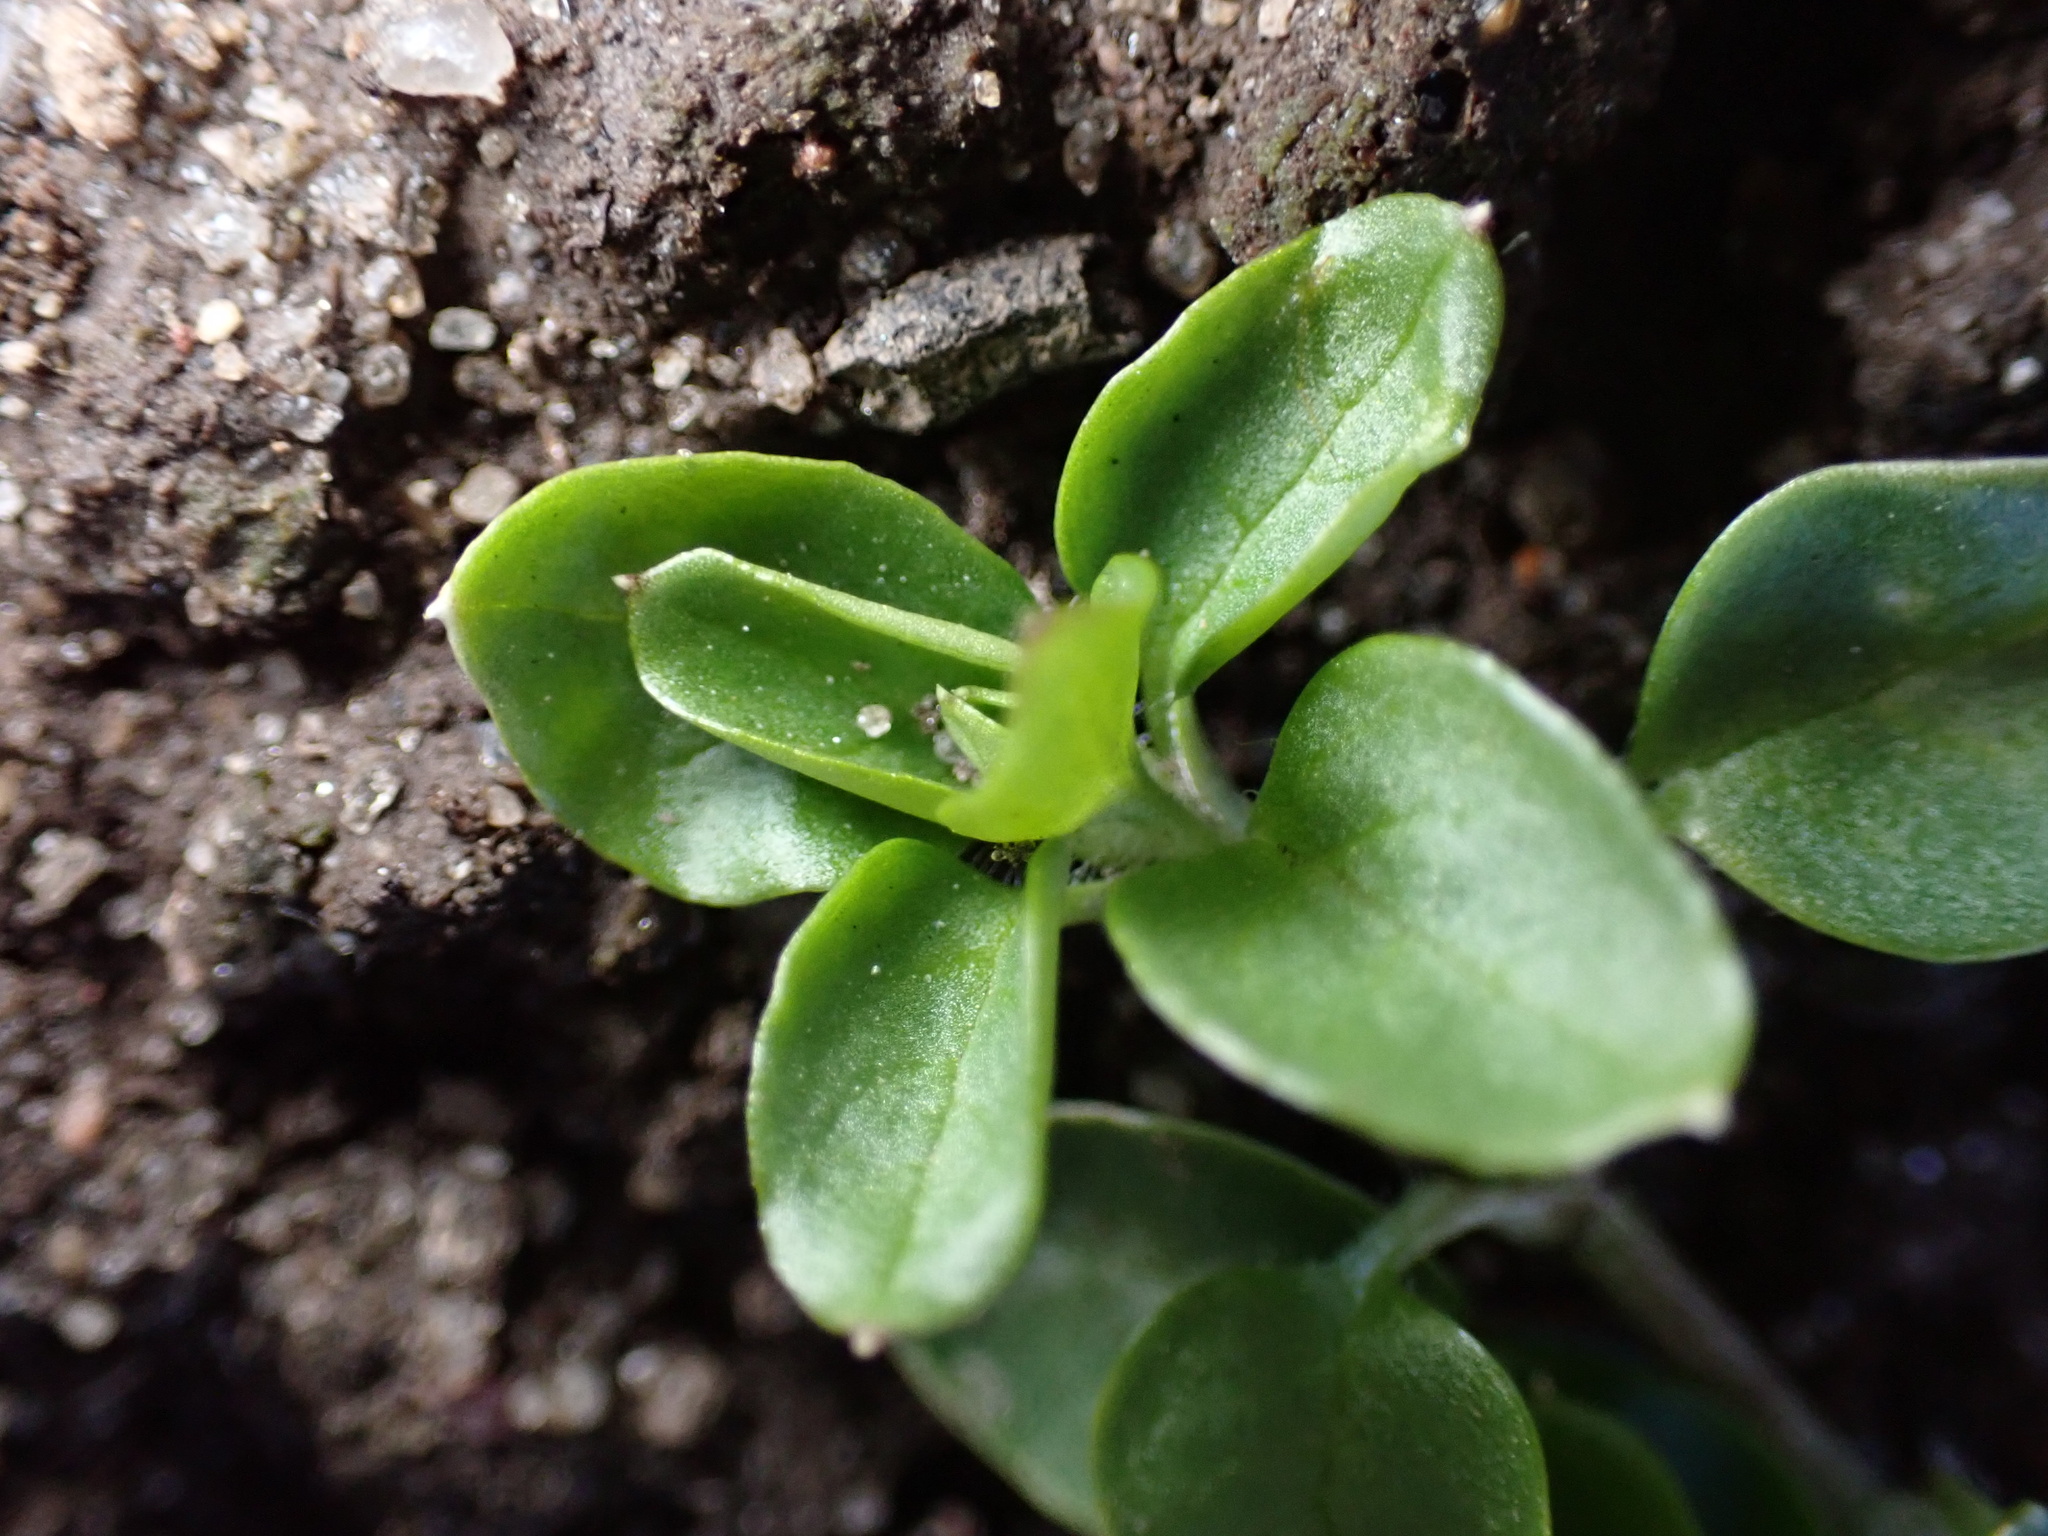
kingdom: Plantae
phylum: Tracheophyta
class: Magnoliopsida
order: Caryophyllales
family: Caryophyllaceae
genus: Stellaria
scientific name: Stellaria media
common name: Common chickweed
